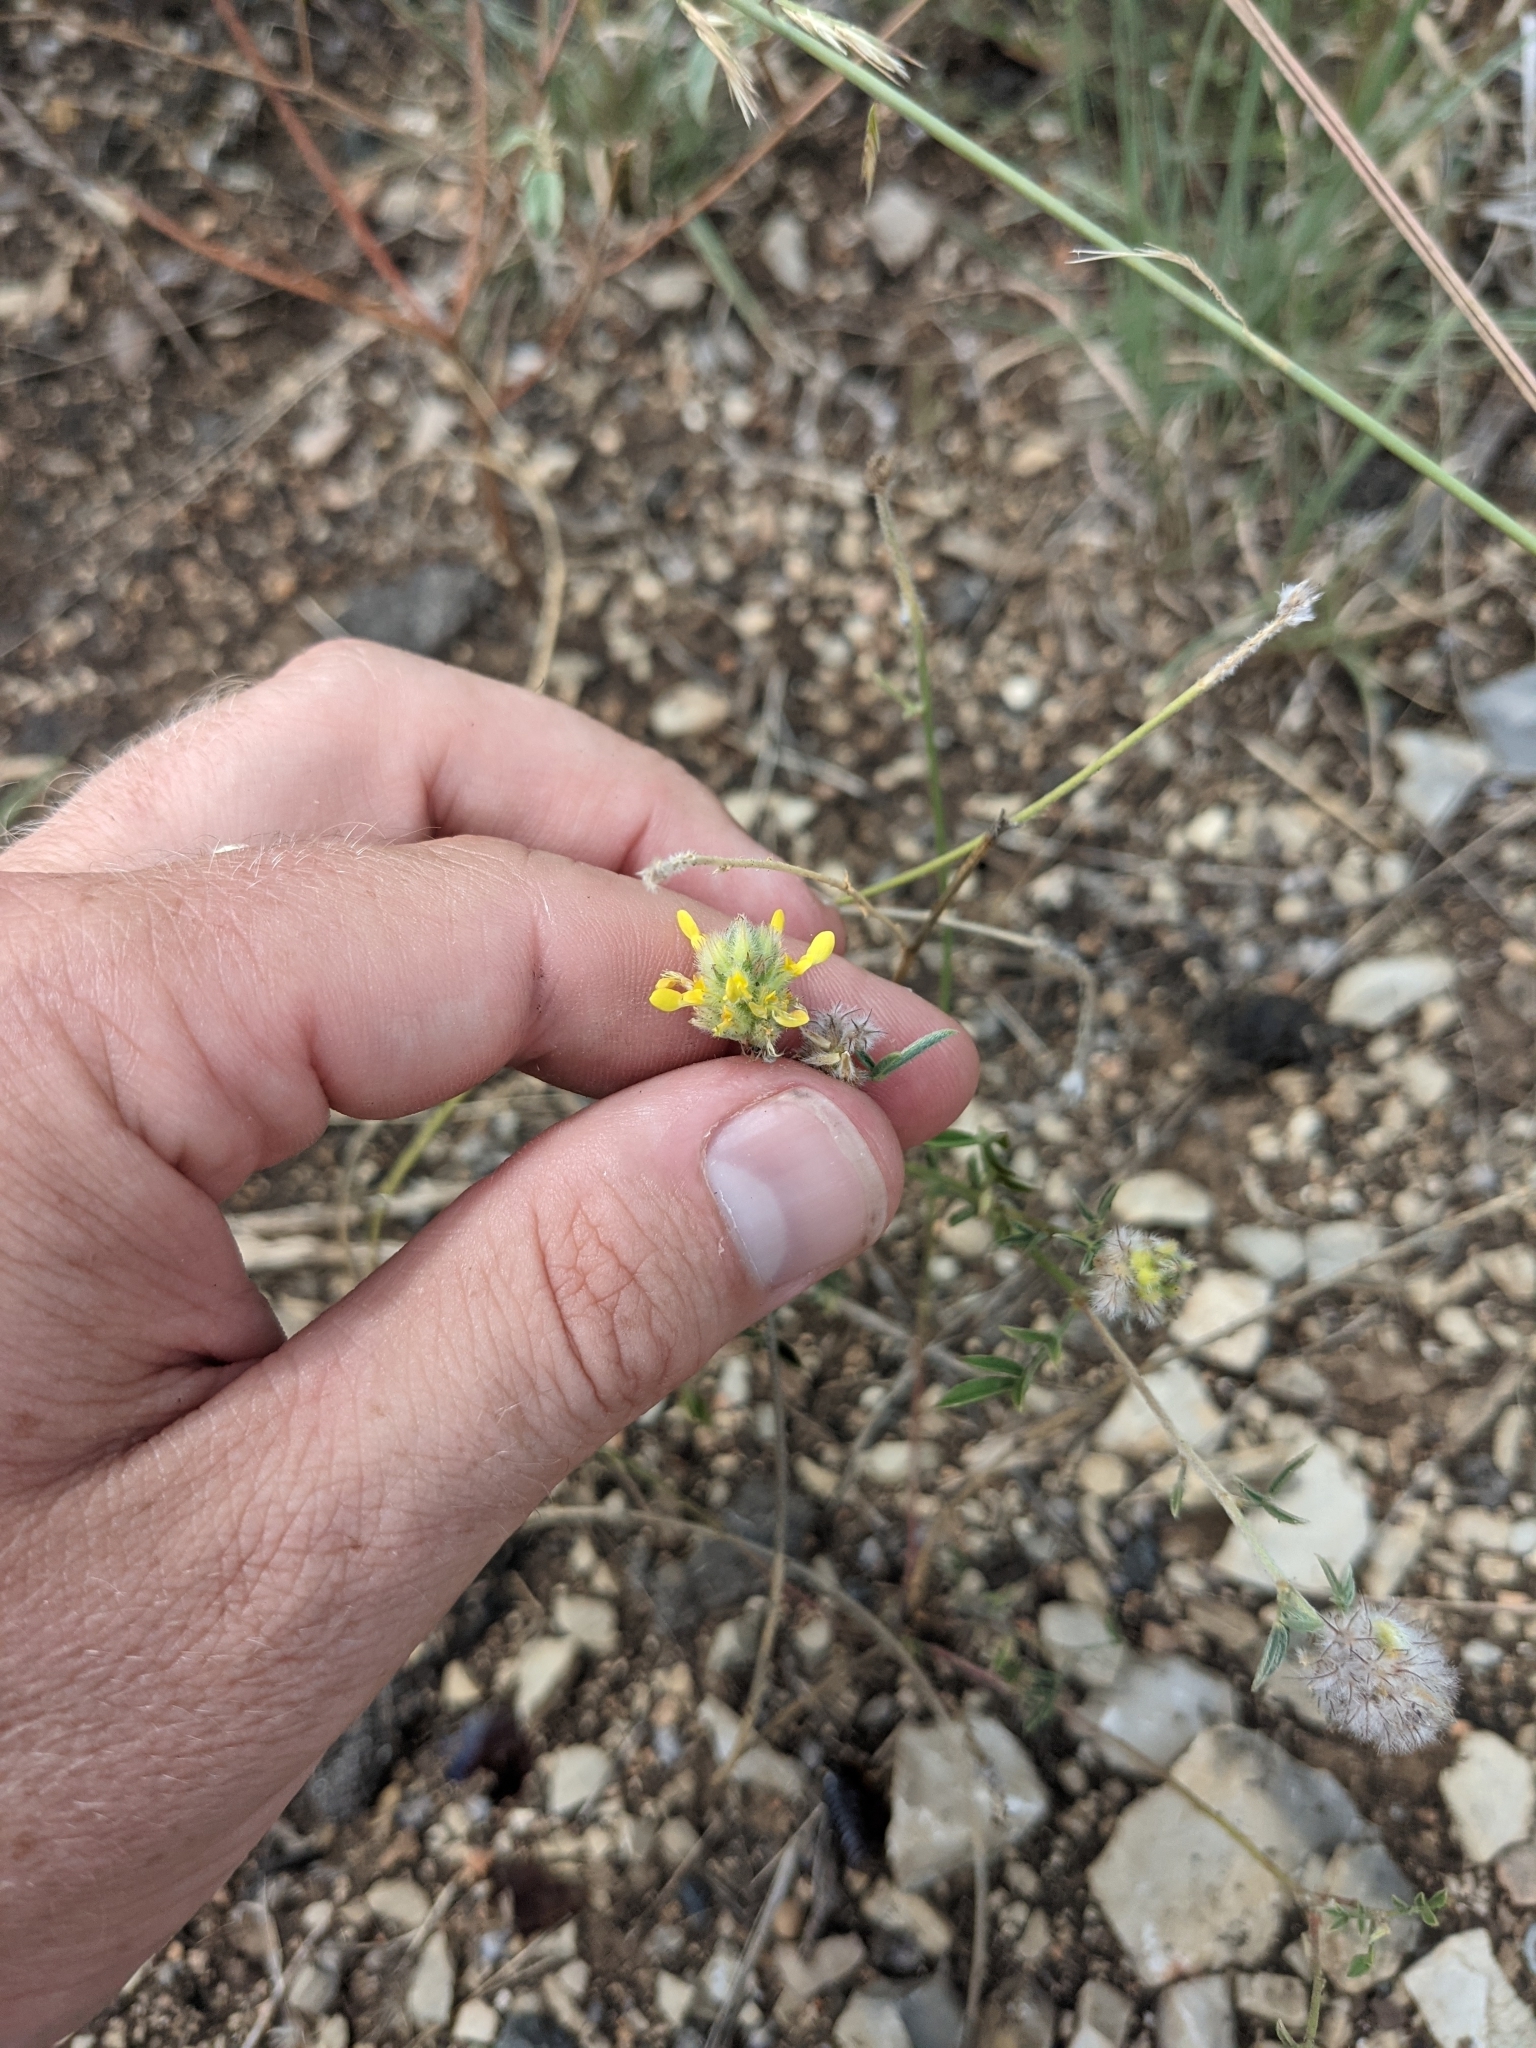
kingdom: Plantae
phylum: Tracheophyta
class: Magnoliopsida
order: Fabales
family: Fabaceae
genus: Dalea
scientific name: Dalea nana
